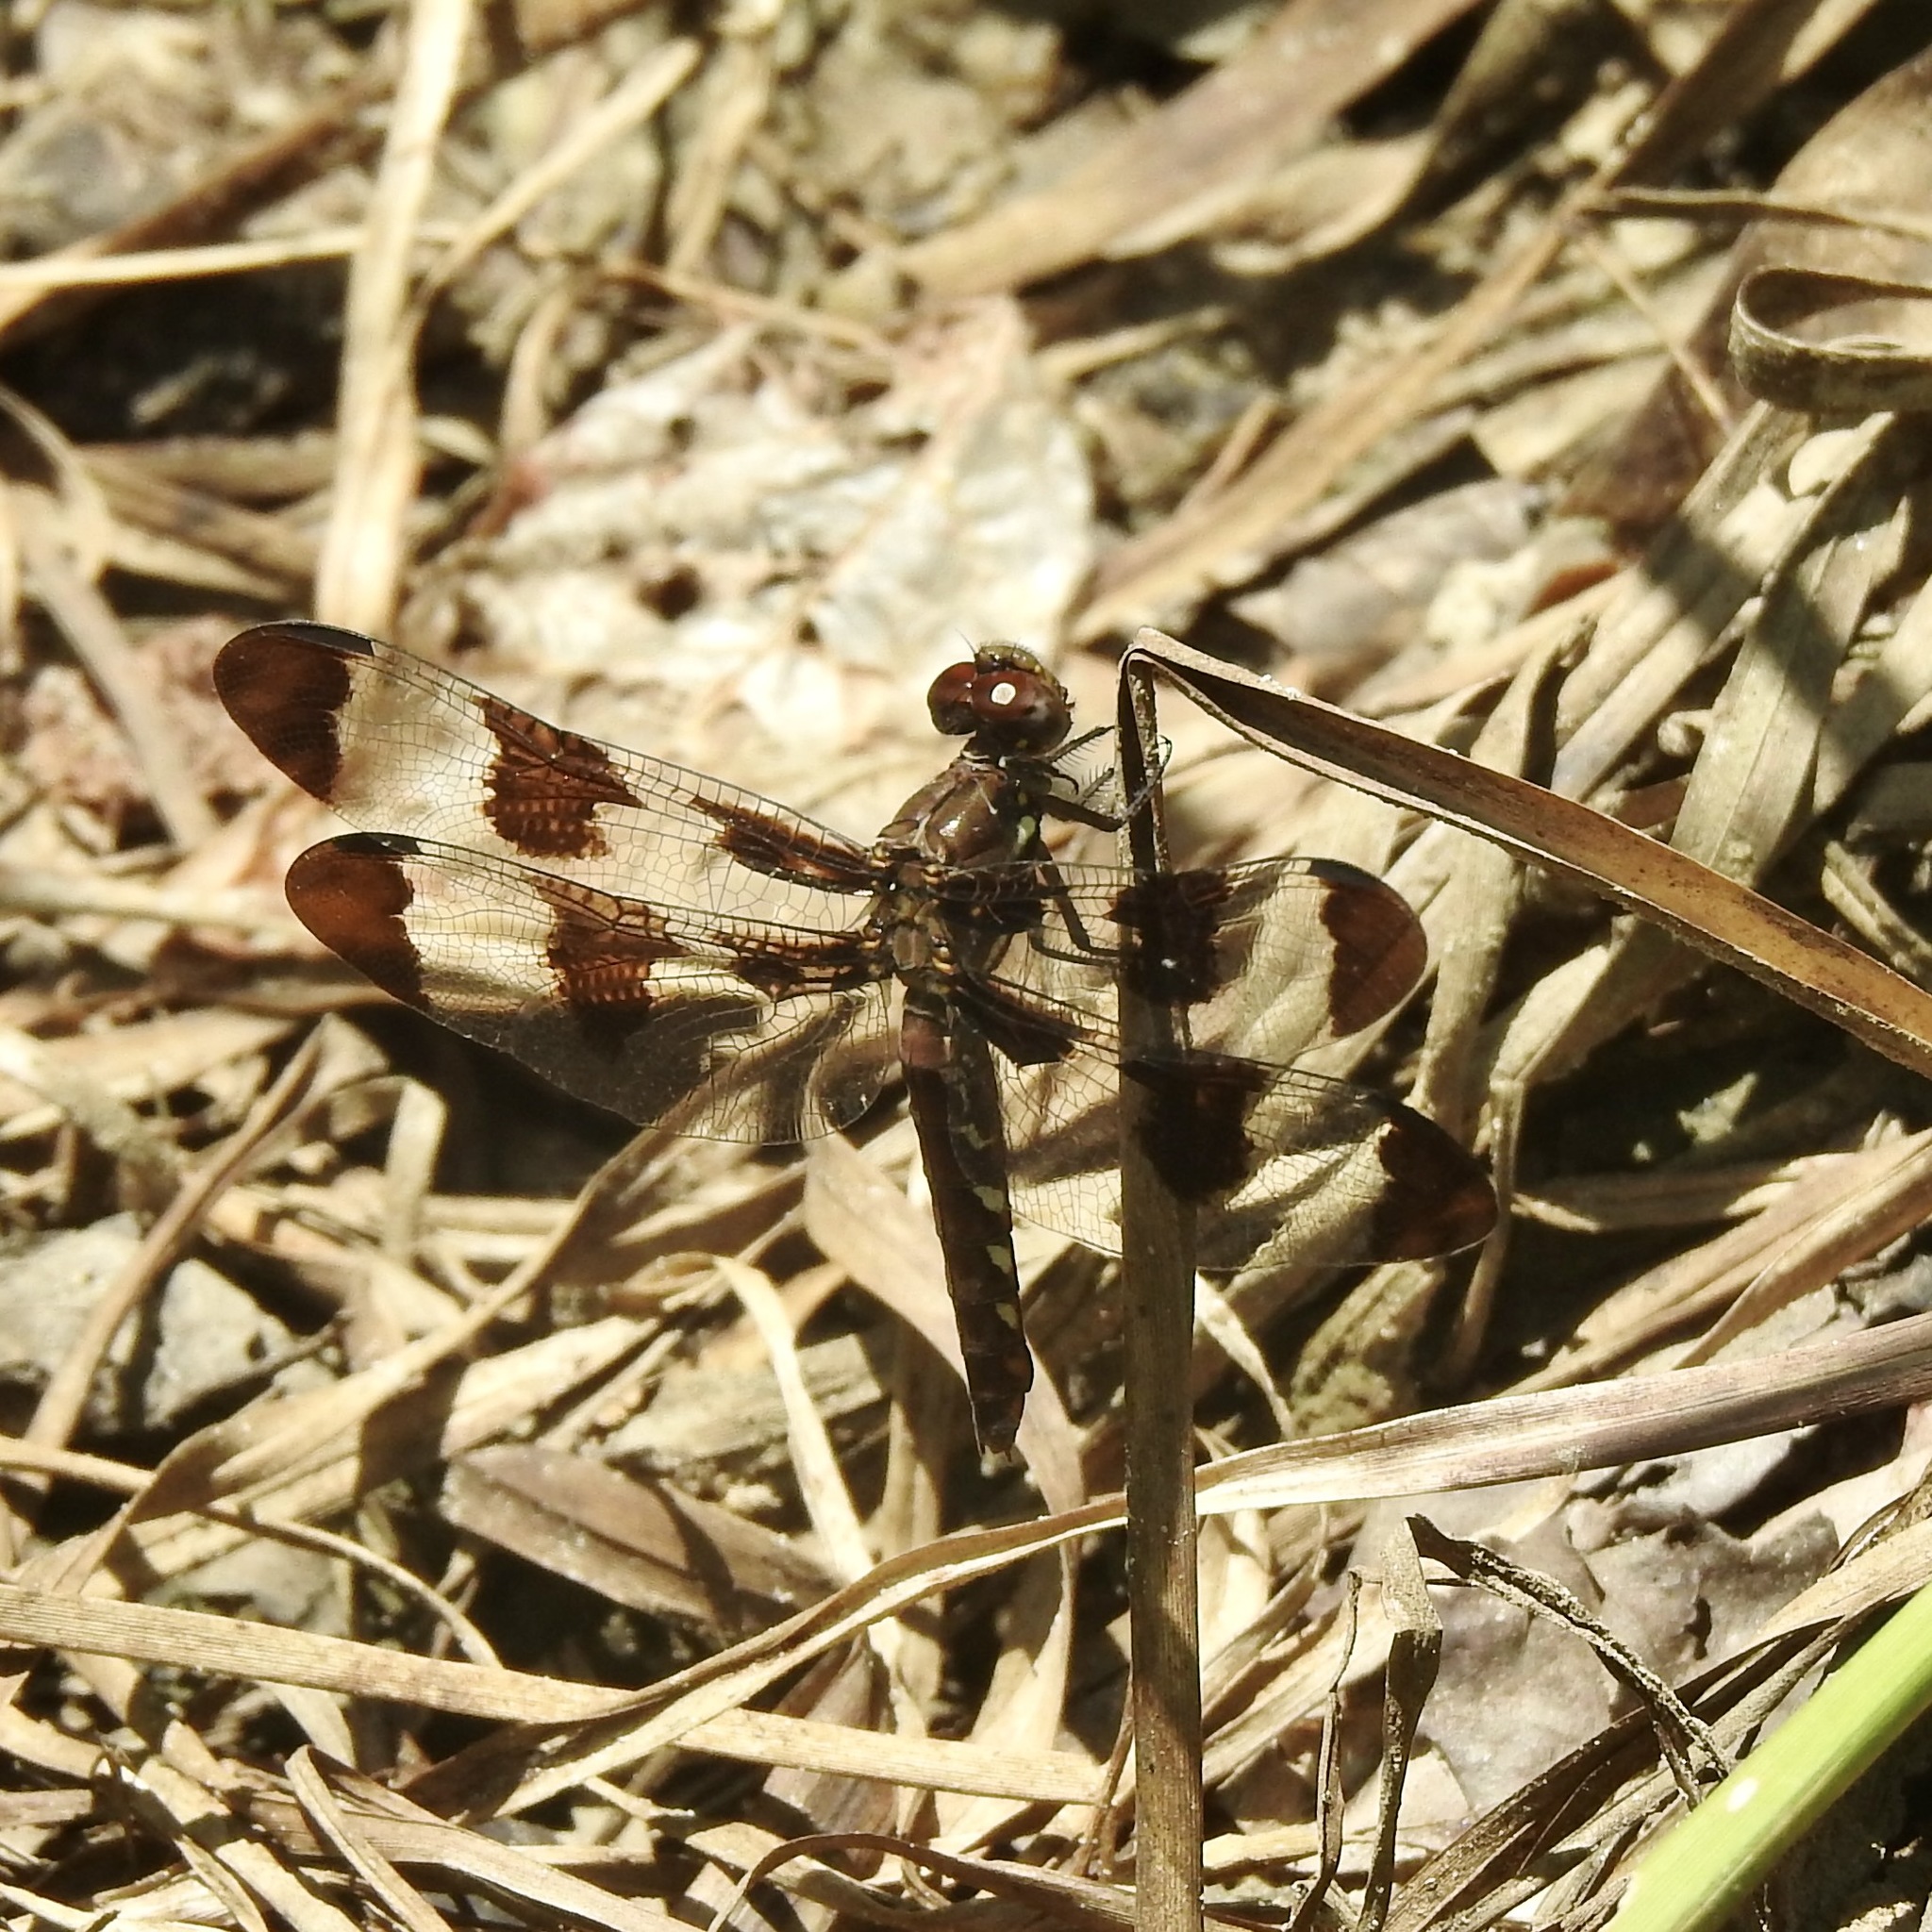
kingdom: Animalia
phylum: Arthropoda
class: Insecta
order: Odonata
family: Libellulidae
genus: Plathemis
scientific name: Plathemis lydia
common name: Common whitetail
